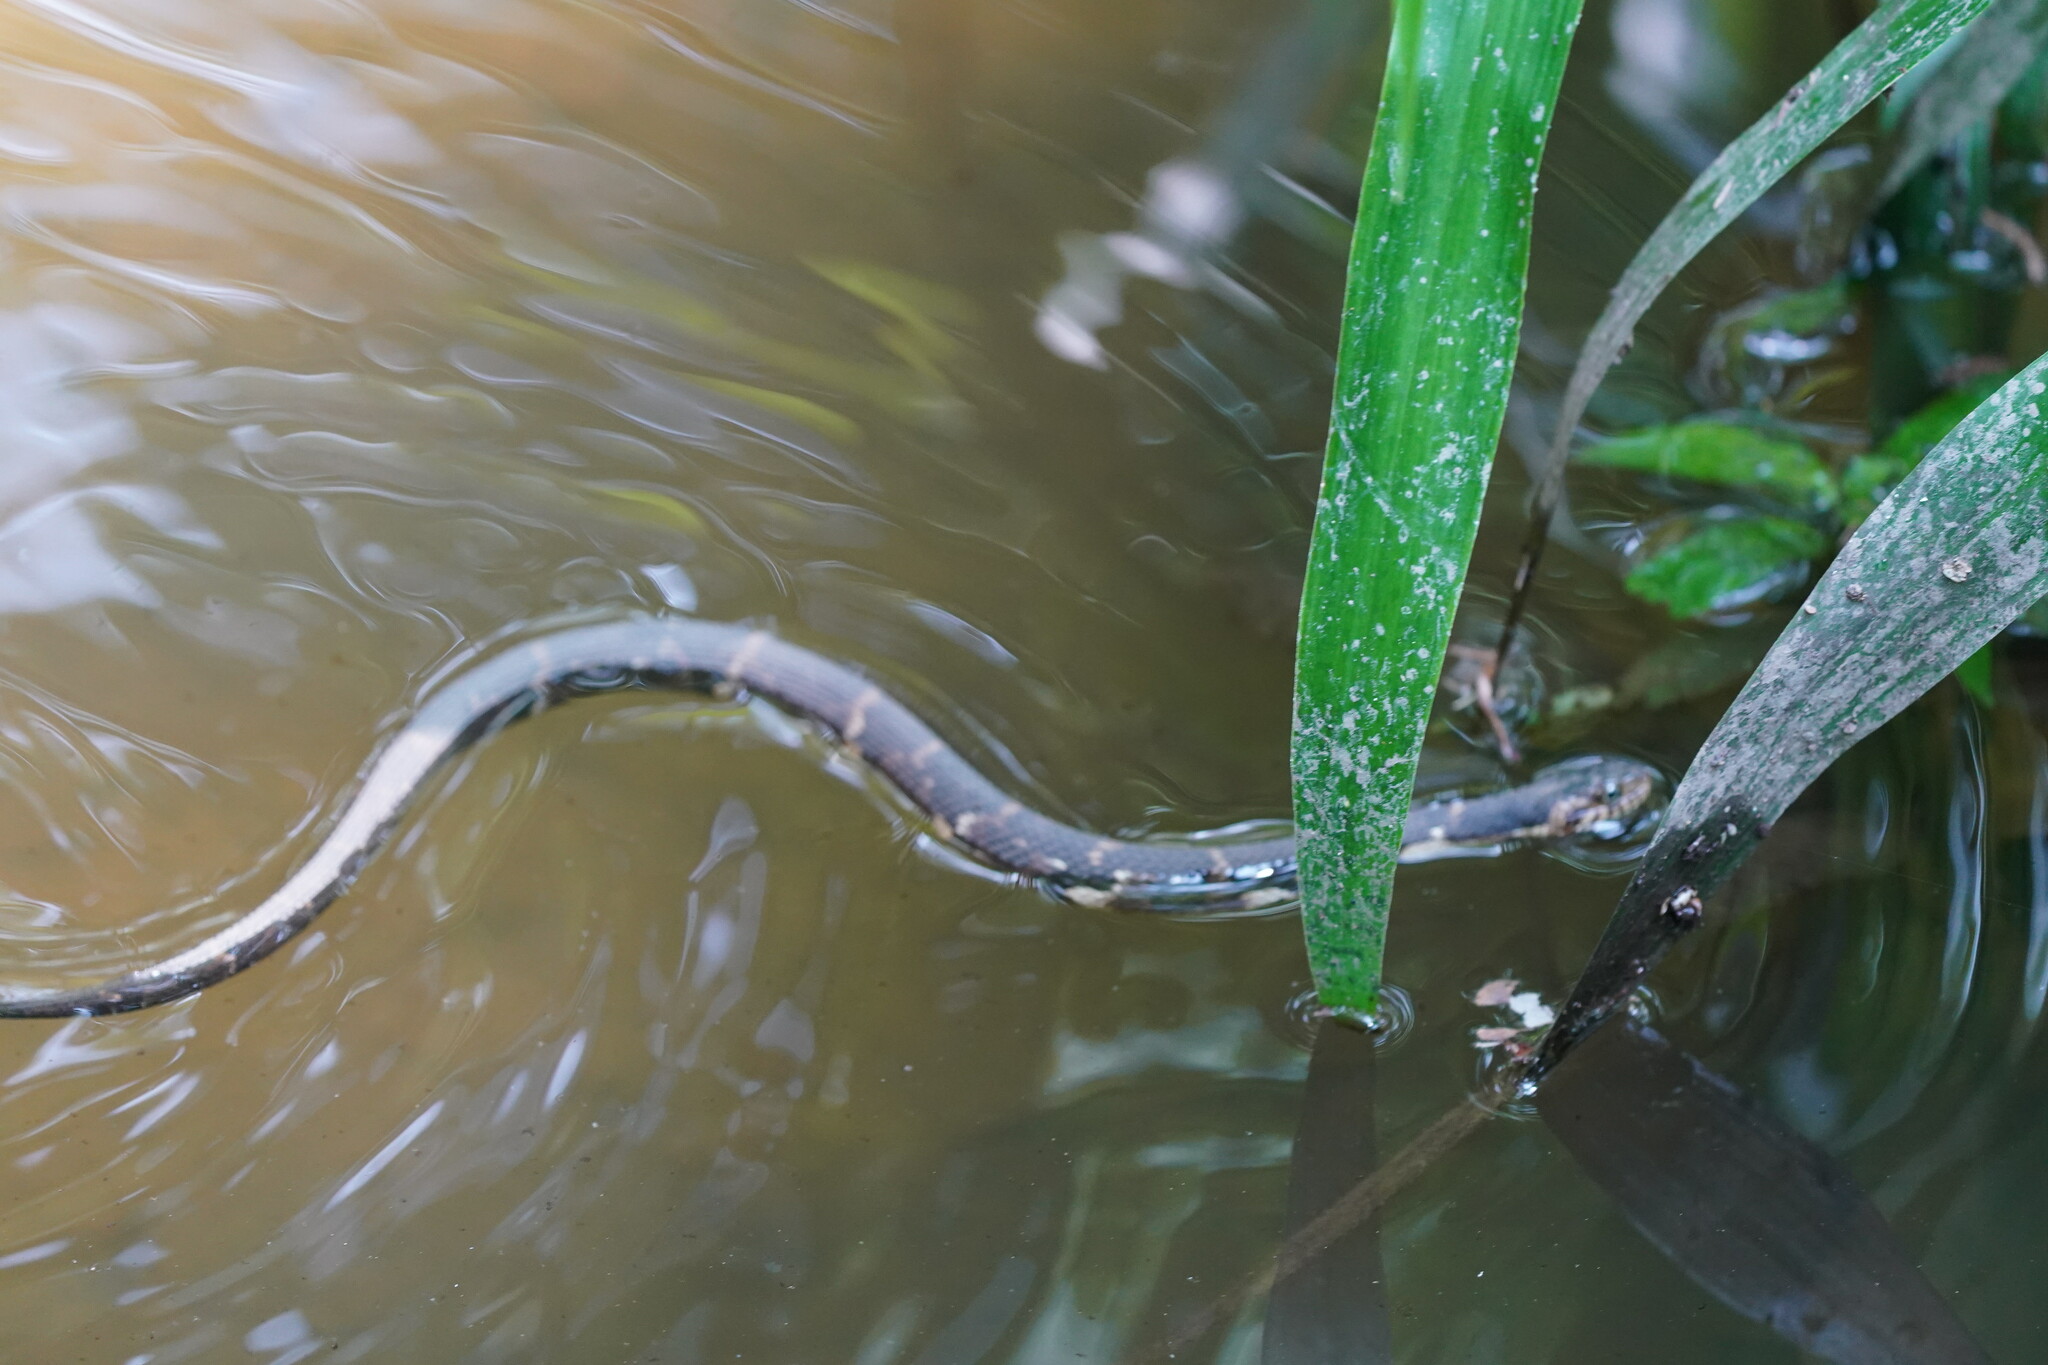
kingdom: Animalia
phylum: Chordata
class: Squamata
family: Colubridae
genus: Nerodia
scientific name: Nerodia fasciata
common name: Southern water snake
